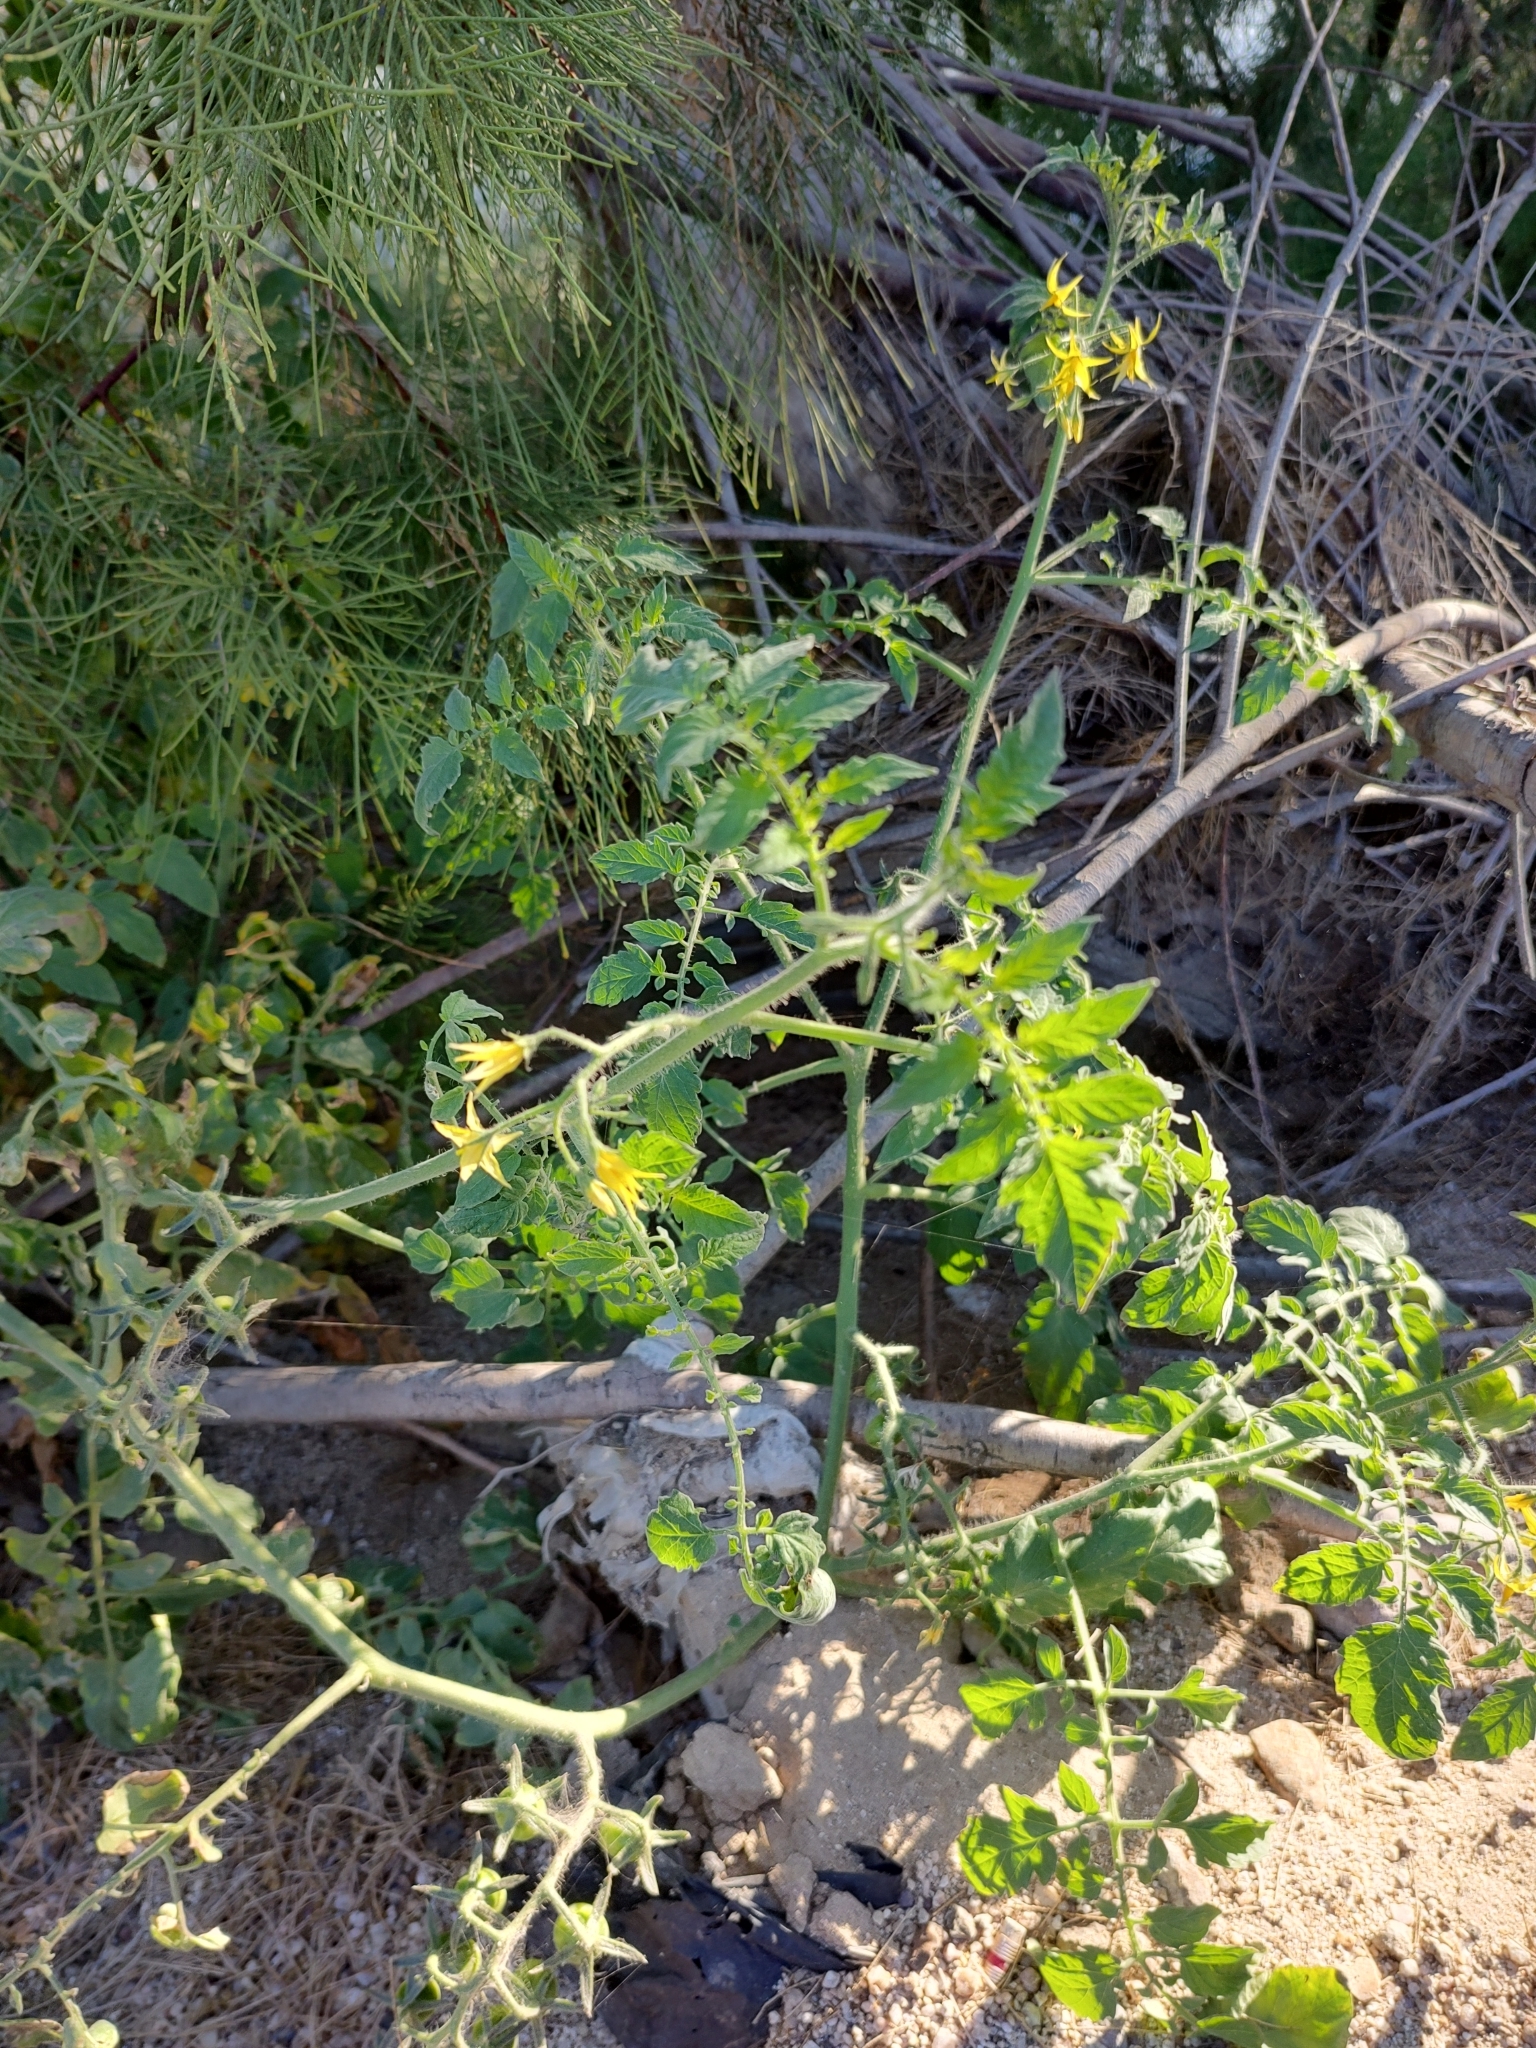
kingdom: Plantae
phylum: Tracheophyta
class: Magnoliopsida
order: Solanales
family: Solanaceae
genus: Solanum
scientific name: Solanum lycopersicum
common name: Garden tomato
